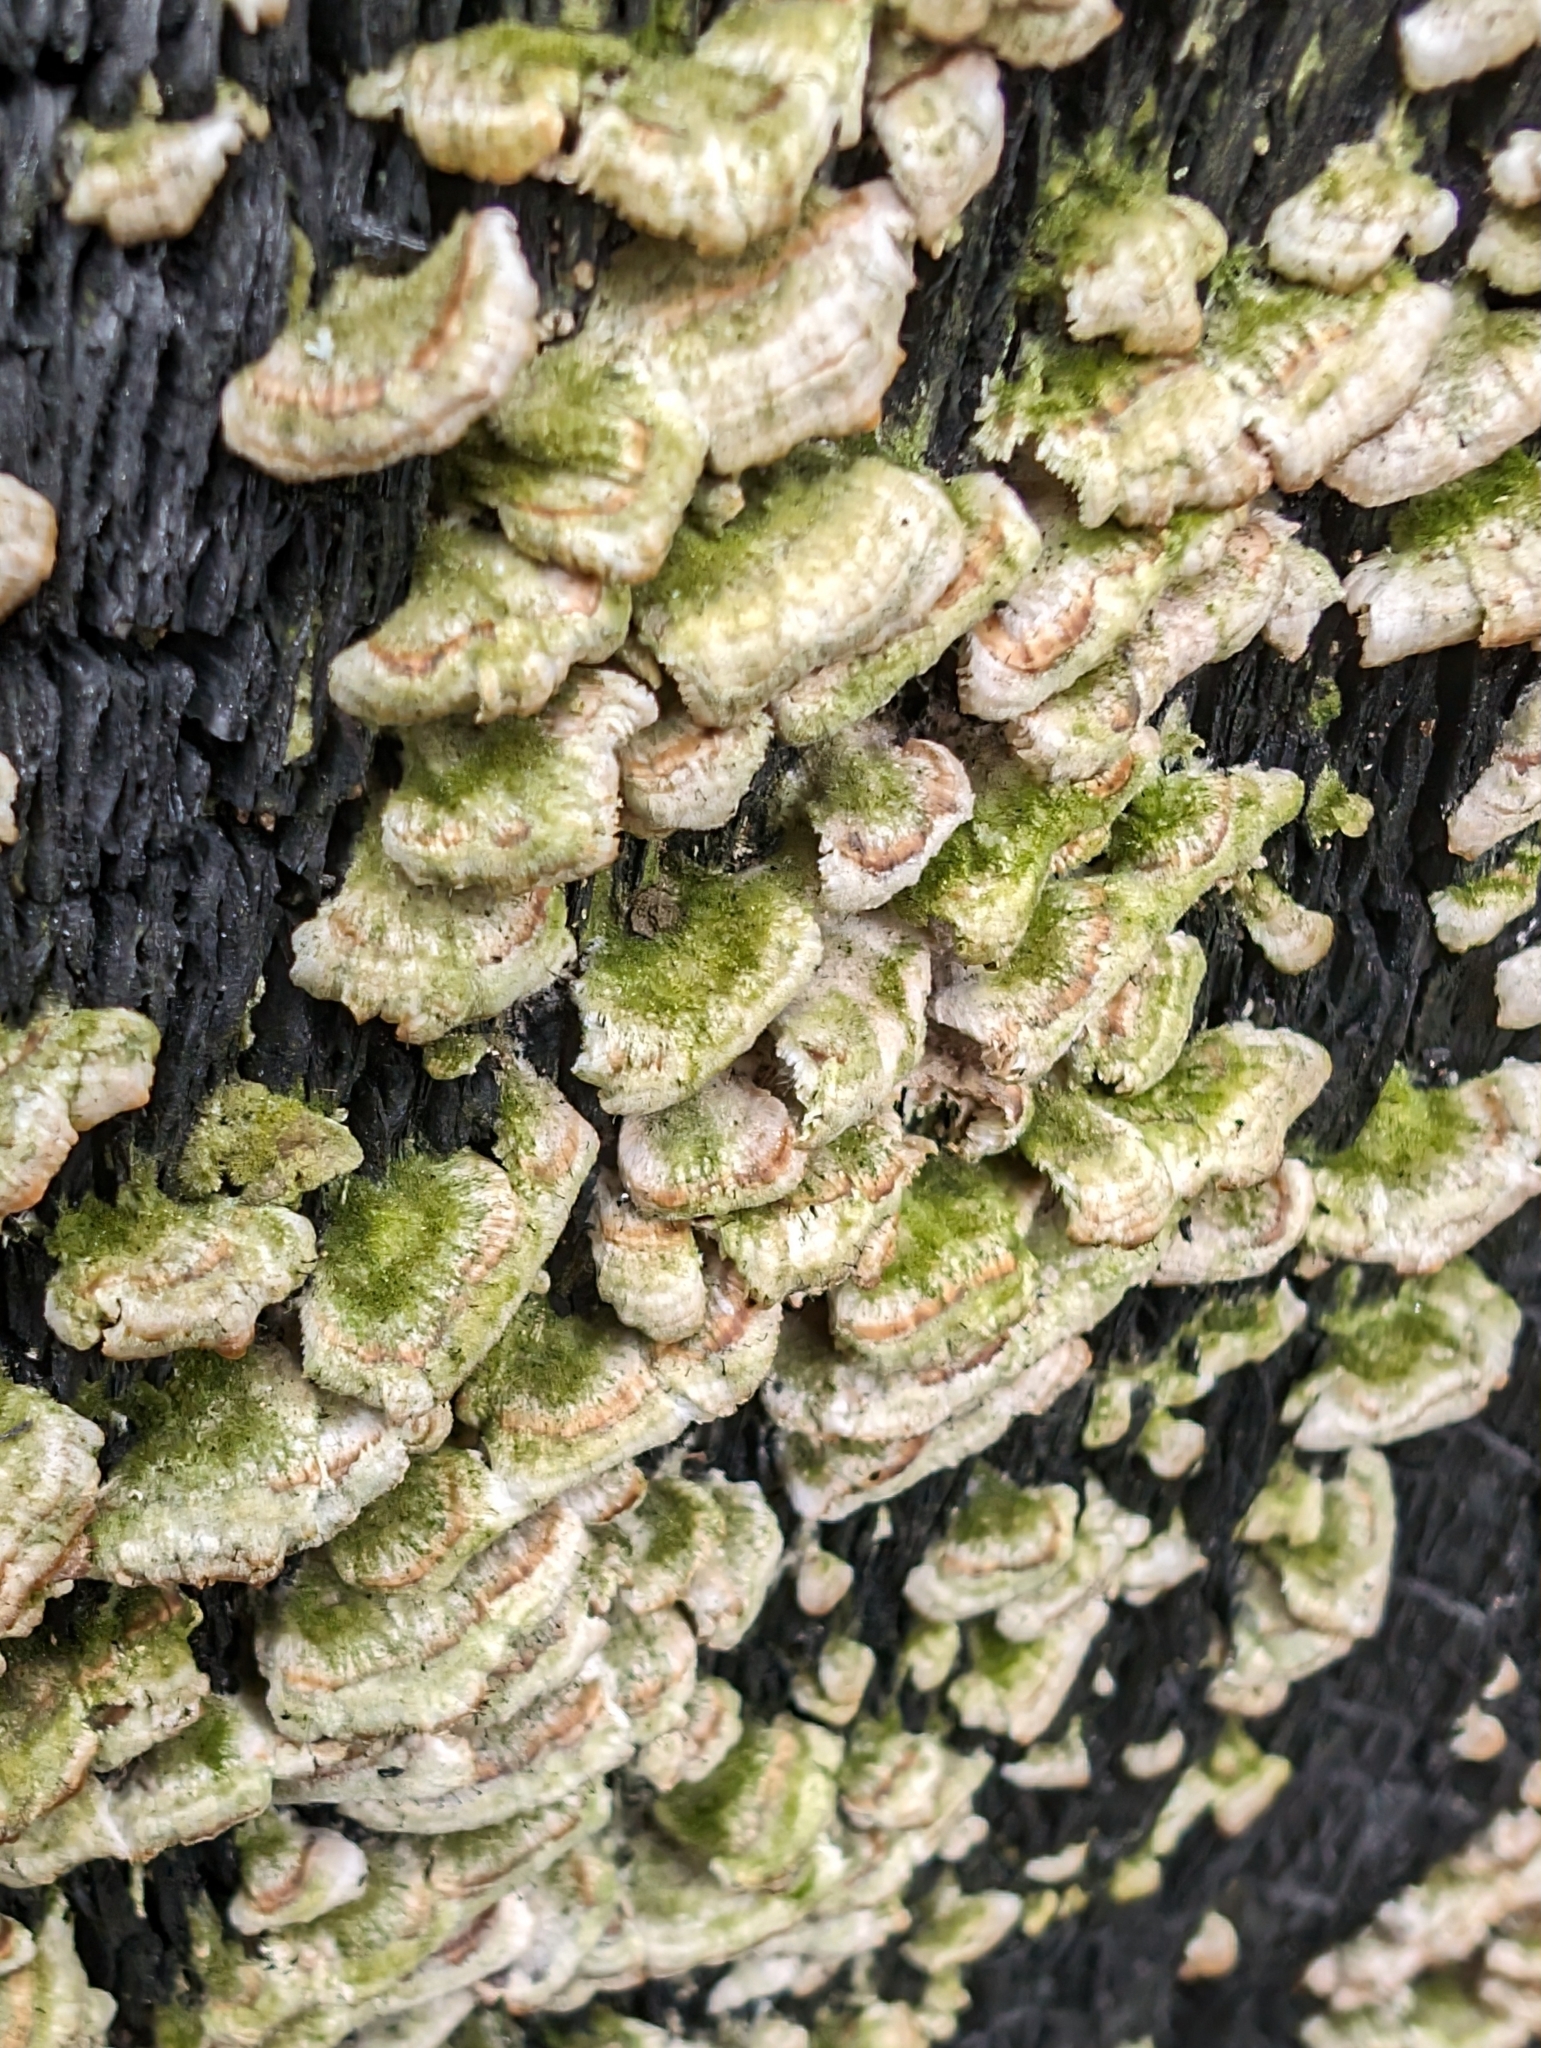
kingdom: Fungi
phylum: Basidiomycota
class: Agaricomycetes
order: Hymenochaetales
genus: Trichaptum
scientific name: Trichaptum biforme
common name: Violet-toothed polypore
